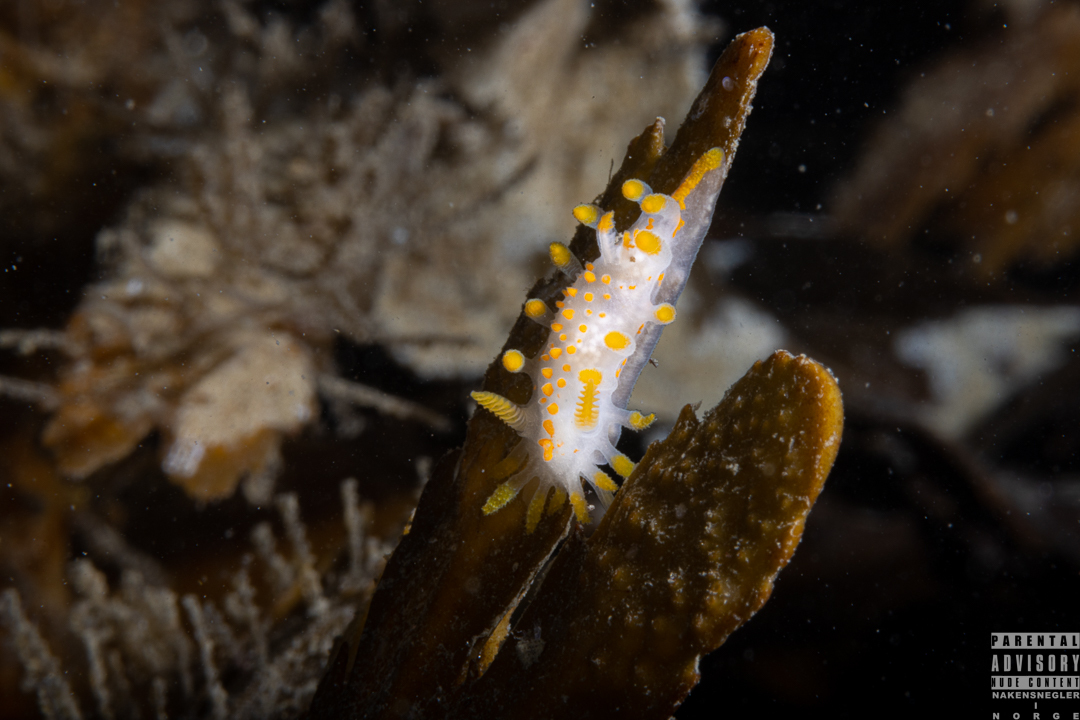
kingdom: Animalia
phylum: Mollusca
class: Gastropoda
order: Nudibranchia
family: Polyceridae
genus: Limacia
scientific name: Limacia clavigera
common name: Orange-clubbed sea slug
